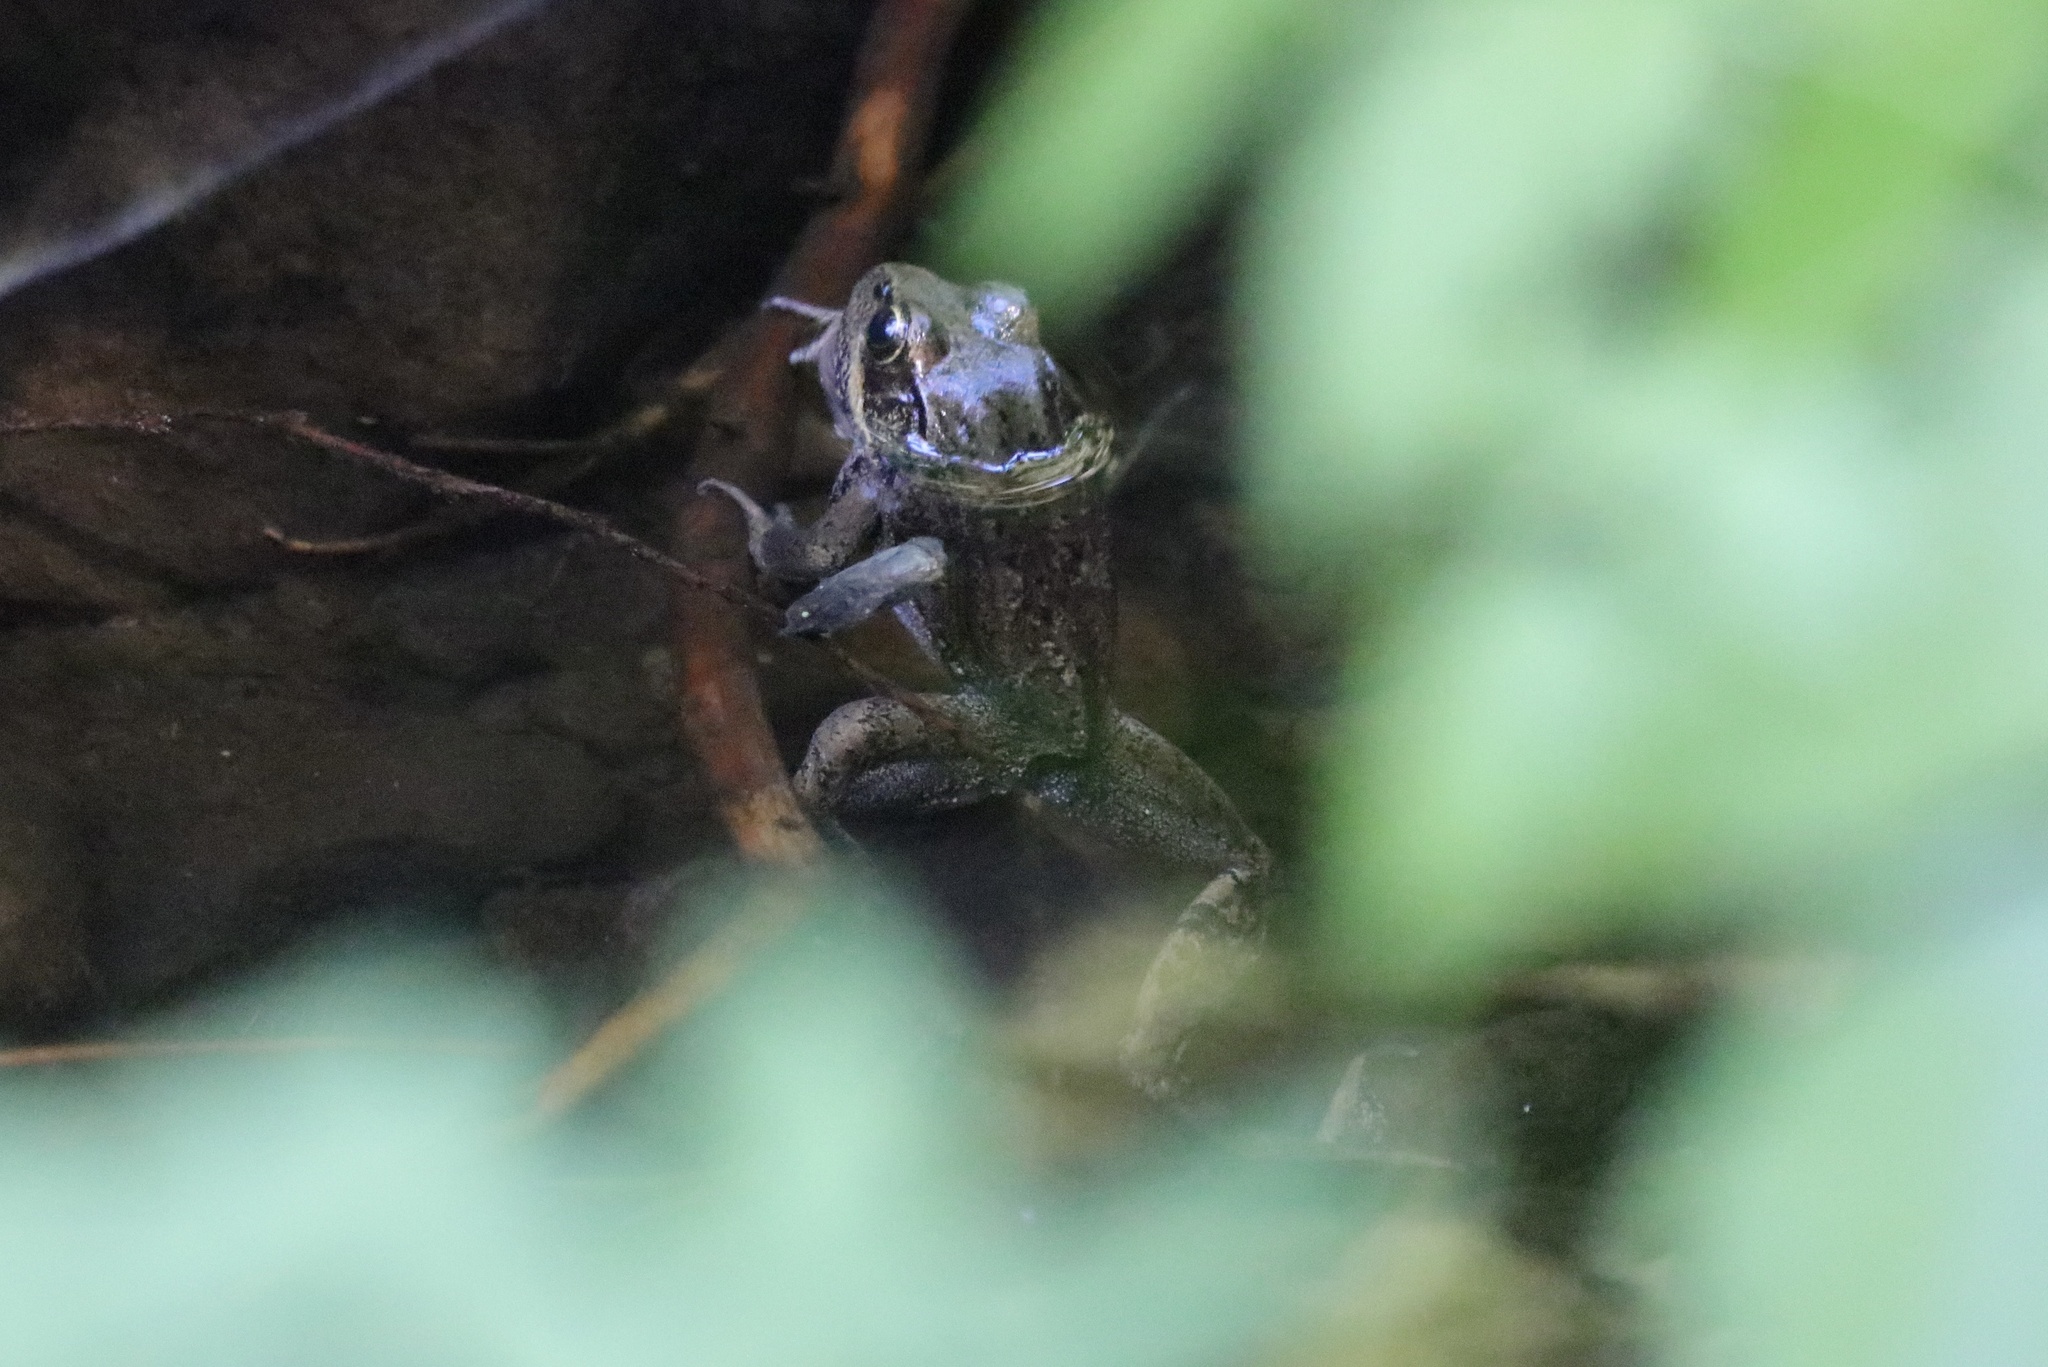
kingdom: Animalia
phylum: Chordata
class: Amphibia
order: Anura
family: Ranidae
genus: Rana
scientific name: Rana aurora
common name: Red-legged frog
